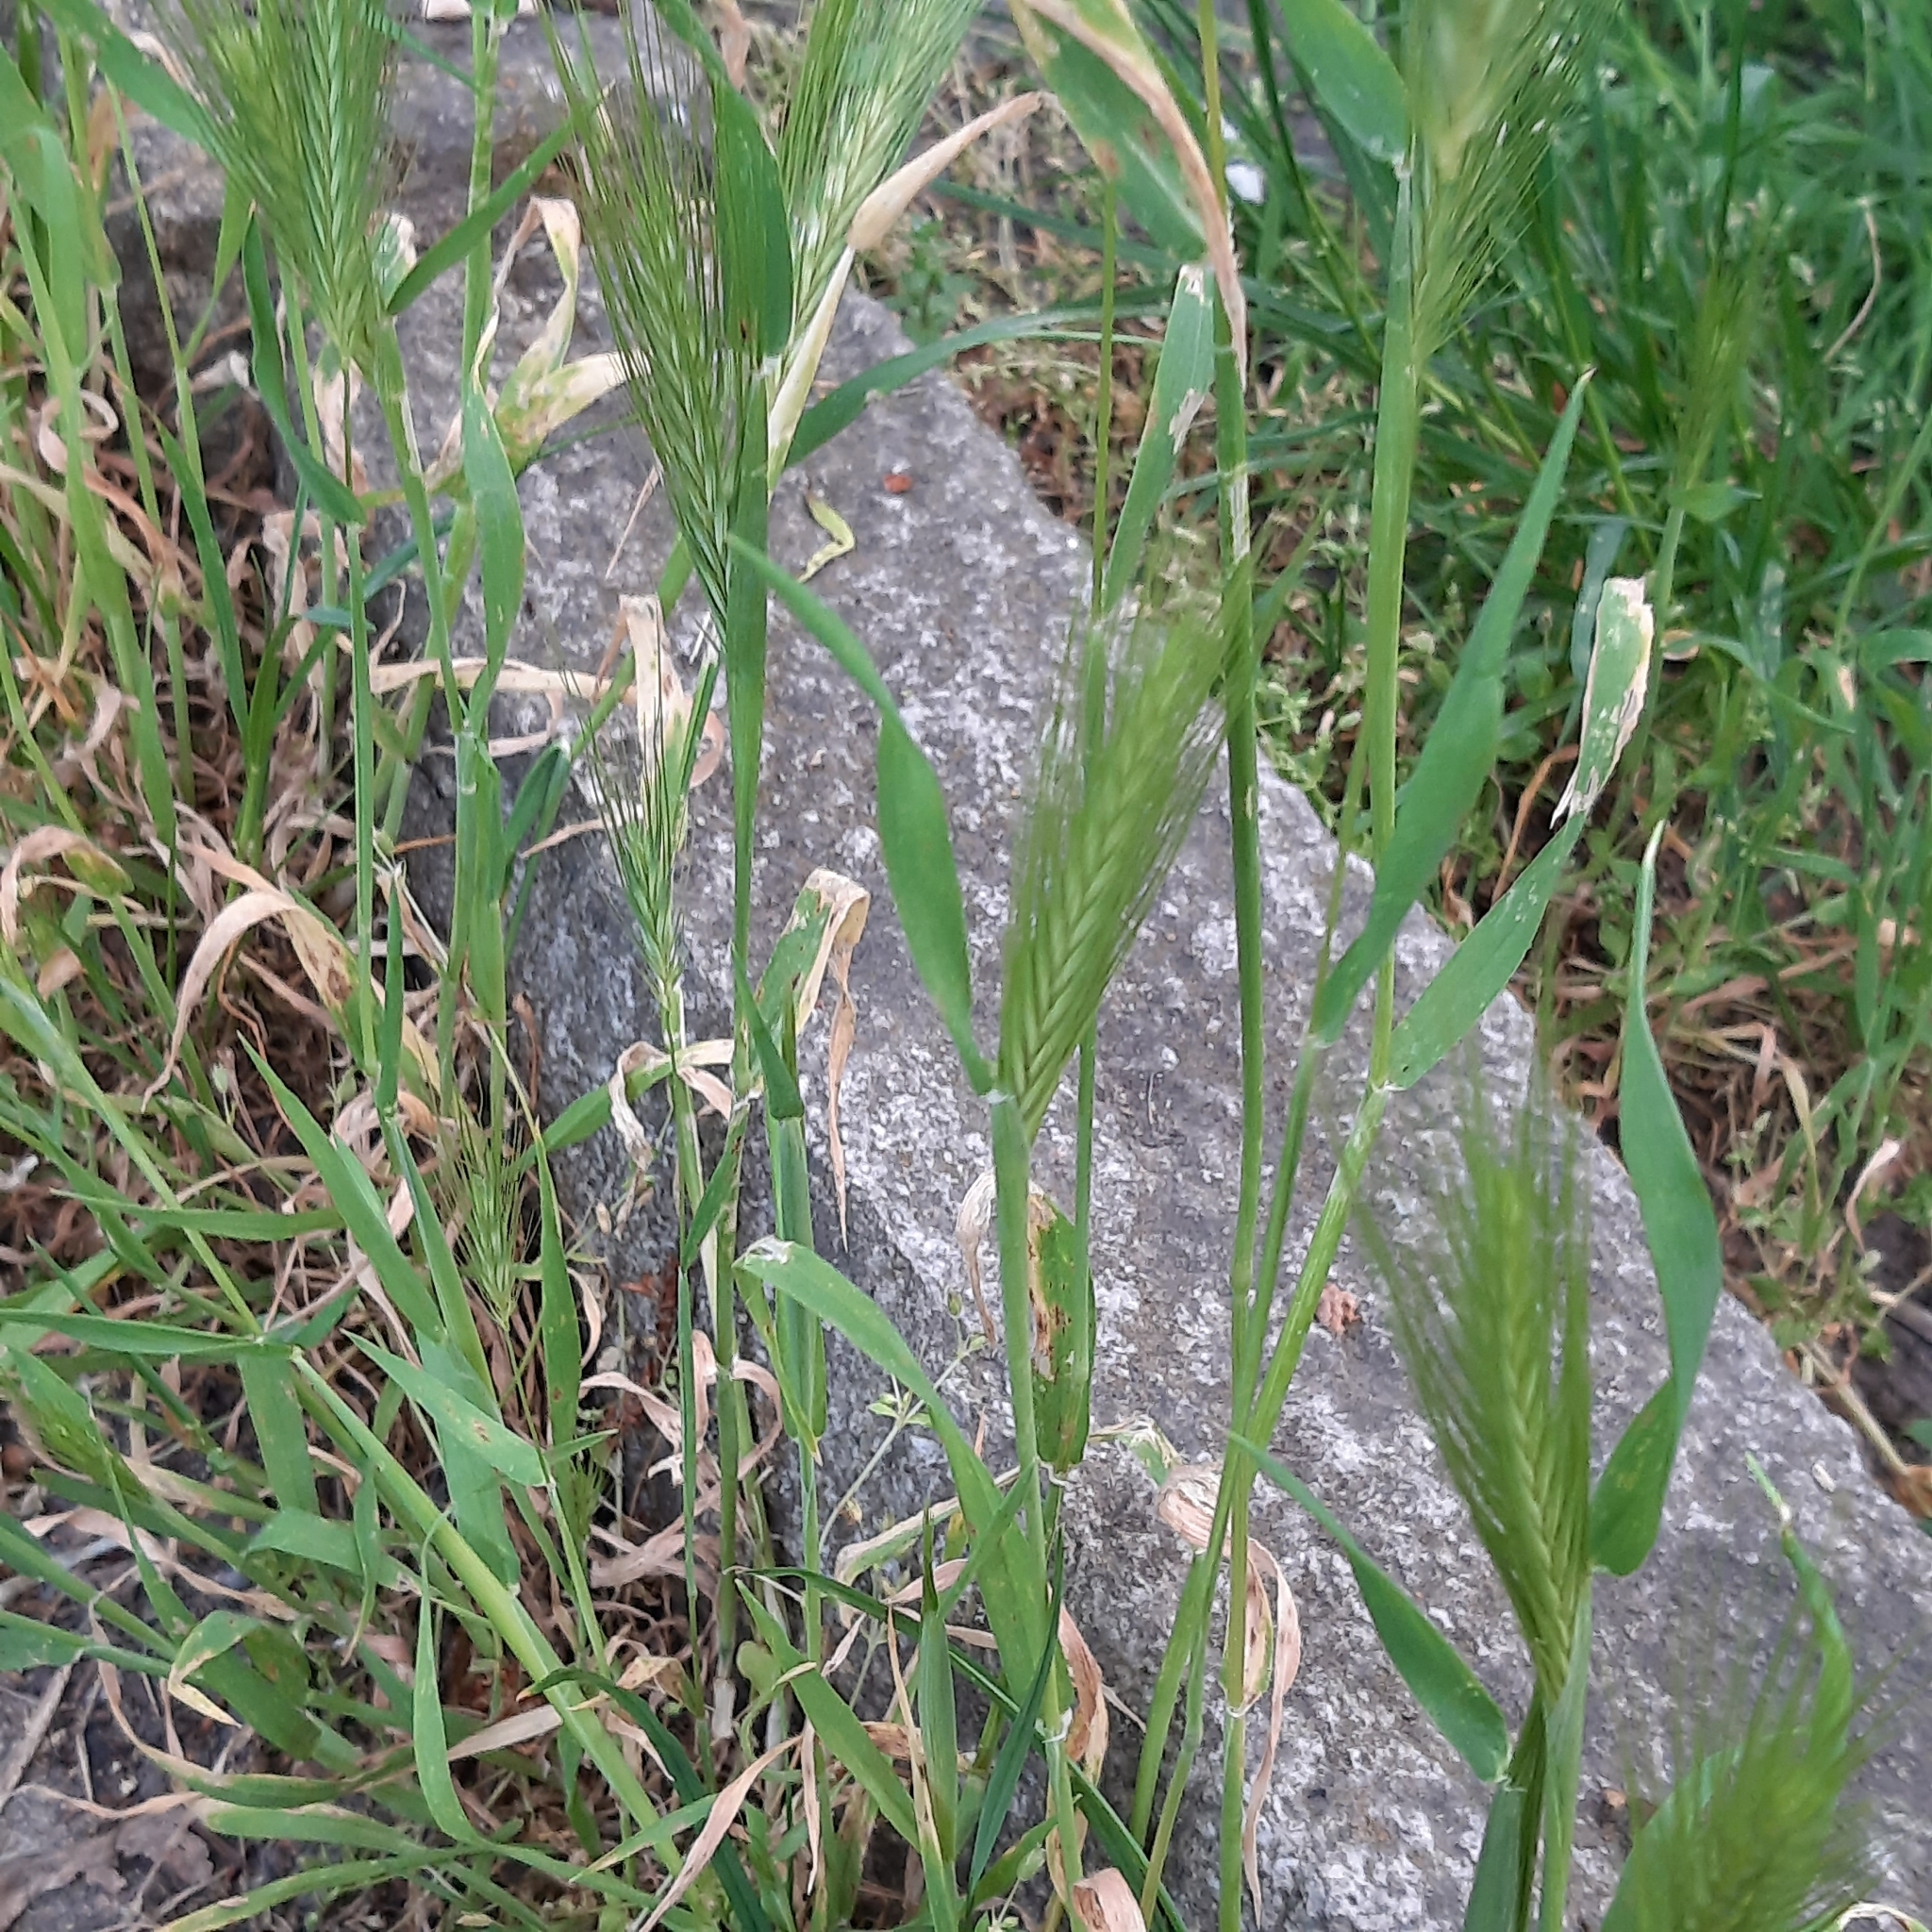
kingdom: Plantae
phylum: Tracheophyta
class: Liliopsida
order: Poales
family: Poaceae
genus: Hordeum
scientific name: Hordeum murinum
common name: Wall barley
